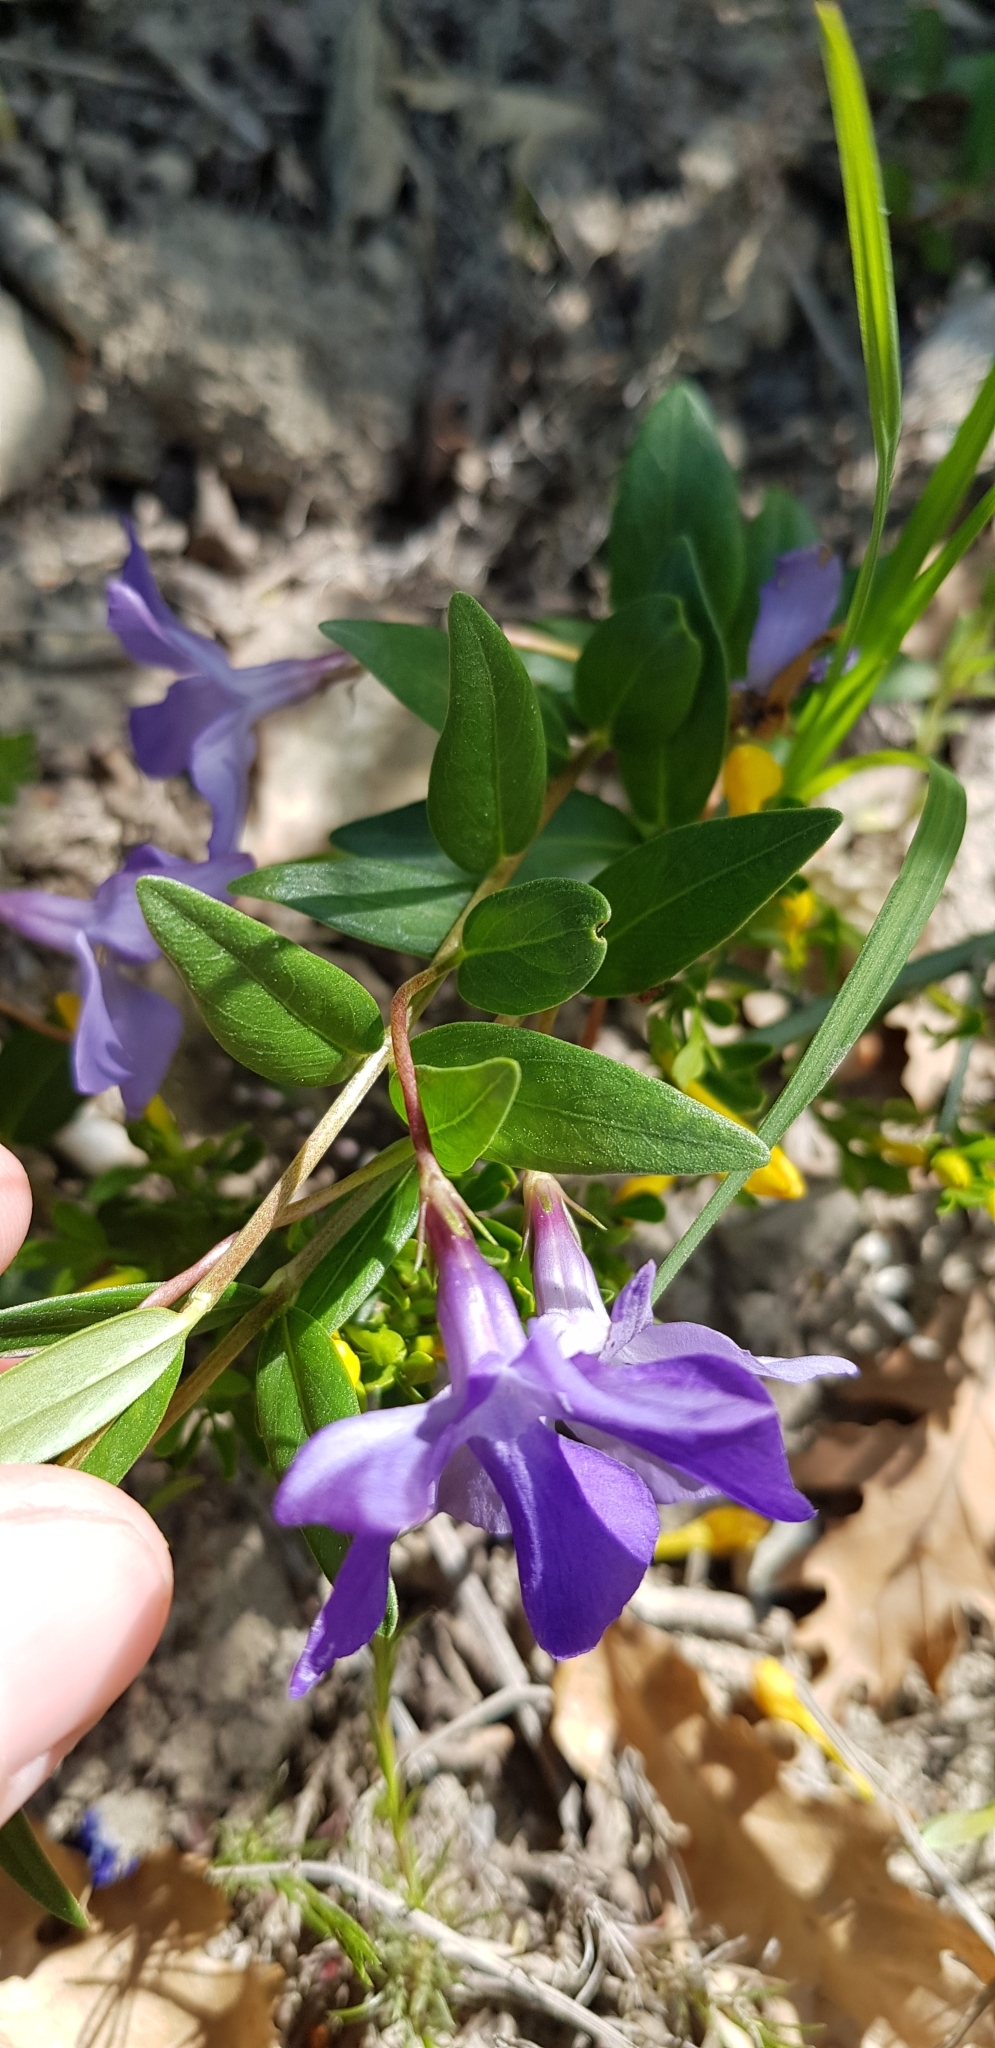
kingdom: Plantae
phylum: Tracheophyta
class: Magnoliopsida
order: Gentianales
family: Apocynaceae
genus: Vinca
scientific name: Vinca herbacea
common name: Herbaceous periwinkle
